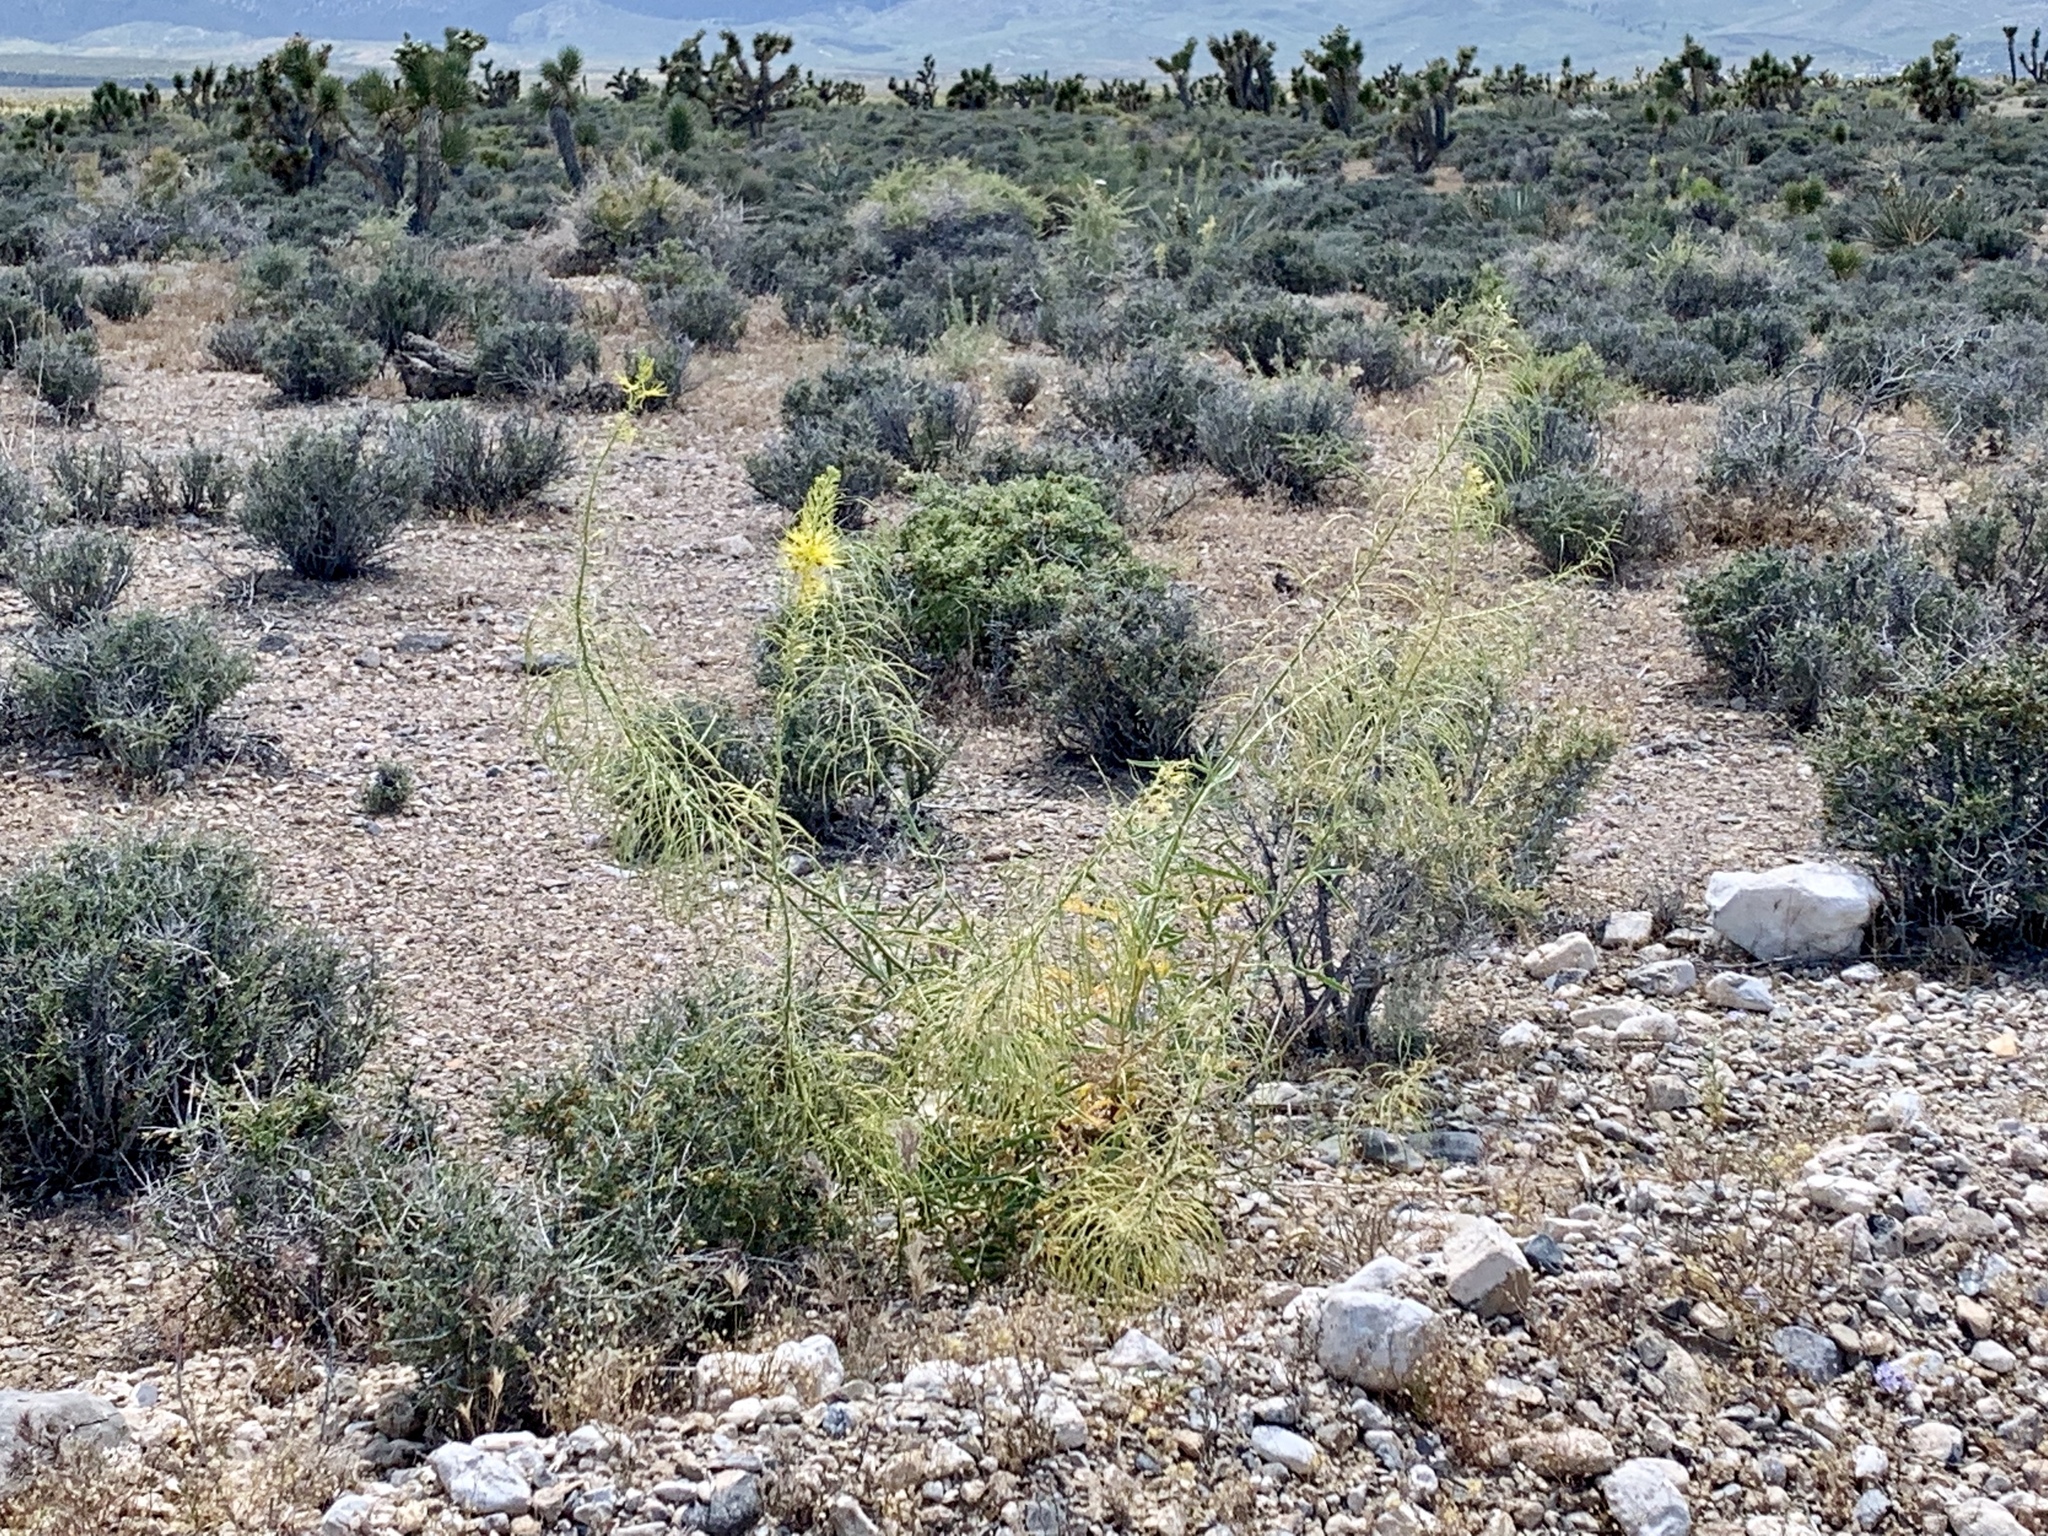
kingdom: Plantae
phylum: Tracheophyta
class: Magnoliopsida
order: Brassicales
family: Brassicaceae
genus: Stanleya
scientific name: Stanleya pinnata
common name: Prince's-plume
